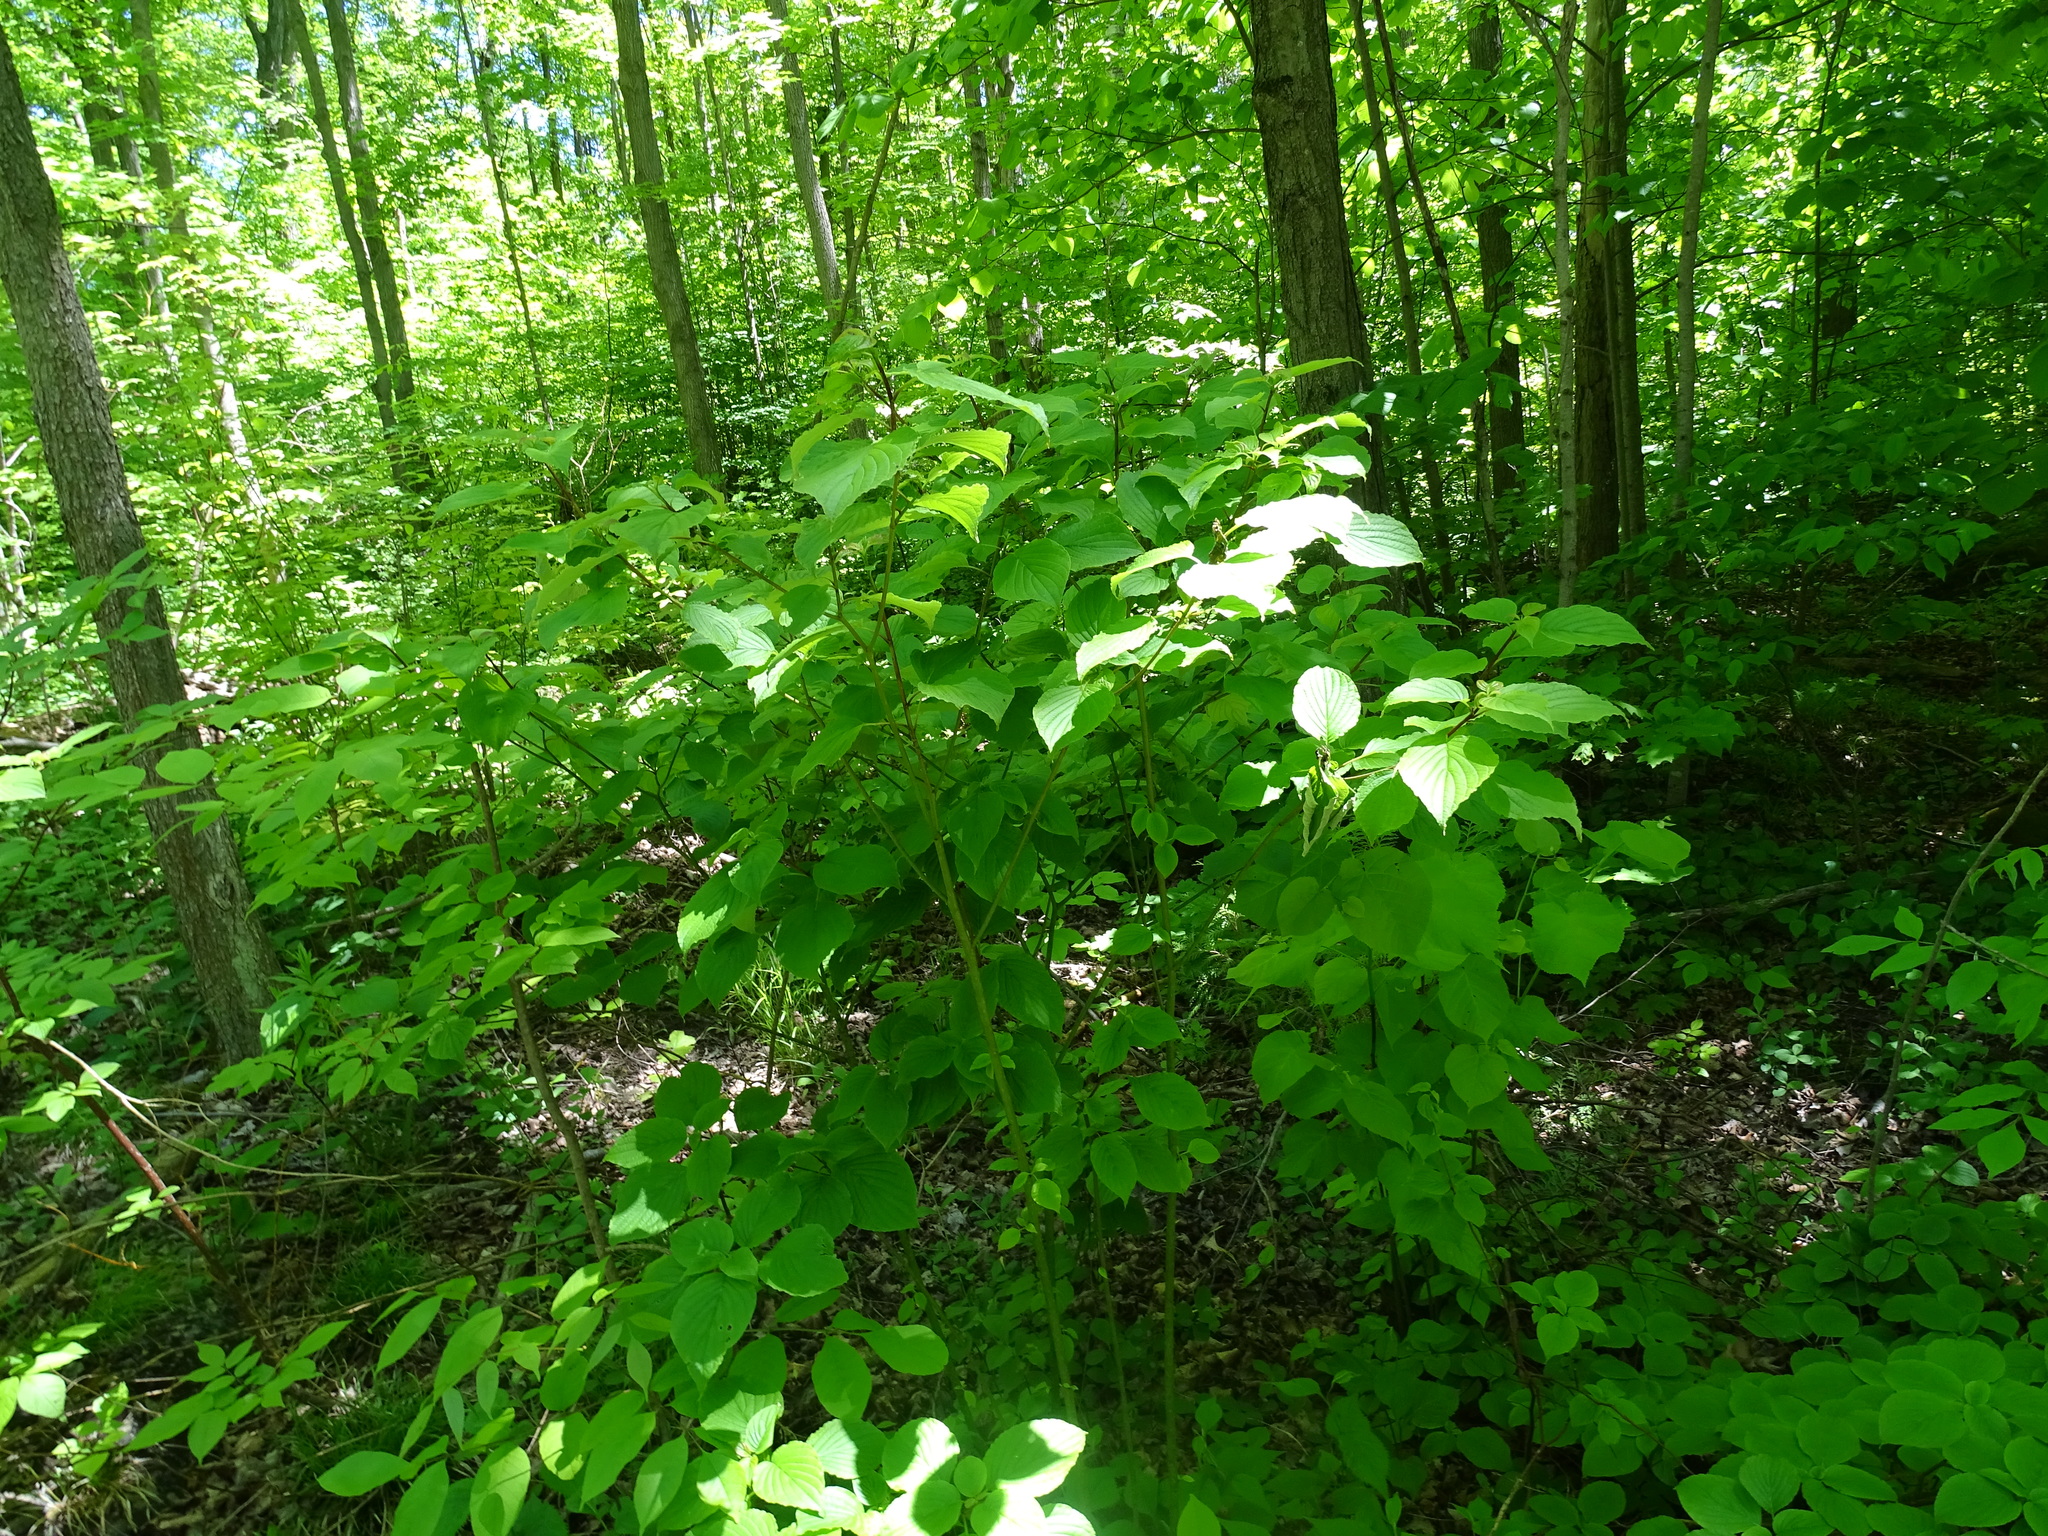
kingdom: Plantae
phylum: Tracheophyta
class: Magnoliopsida
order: Cornales
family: Cornaceae
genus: Cornus
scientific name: Cornus rugosa
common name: Round-leaf dogwood
